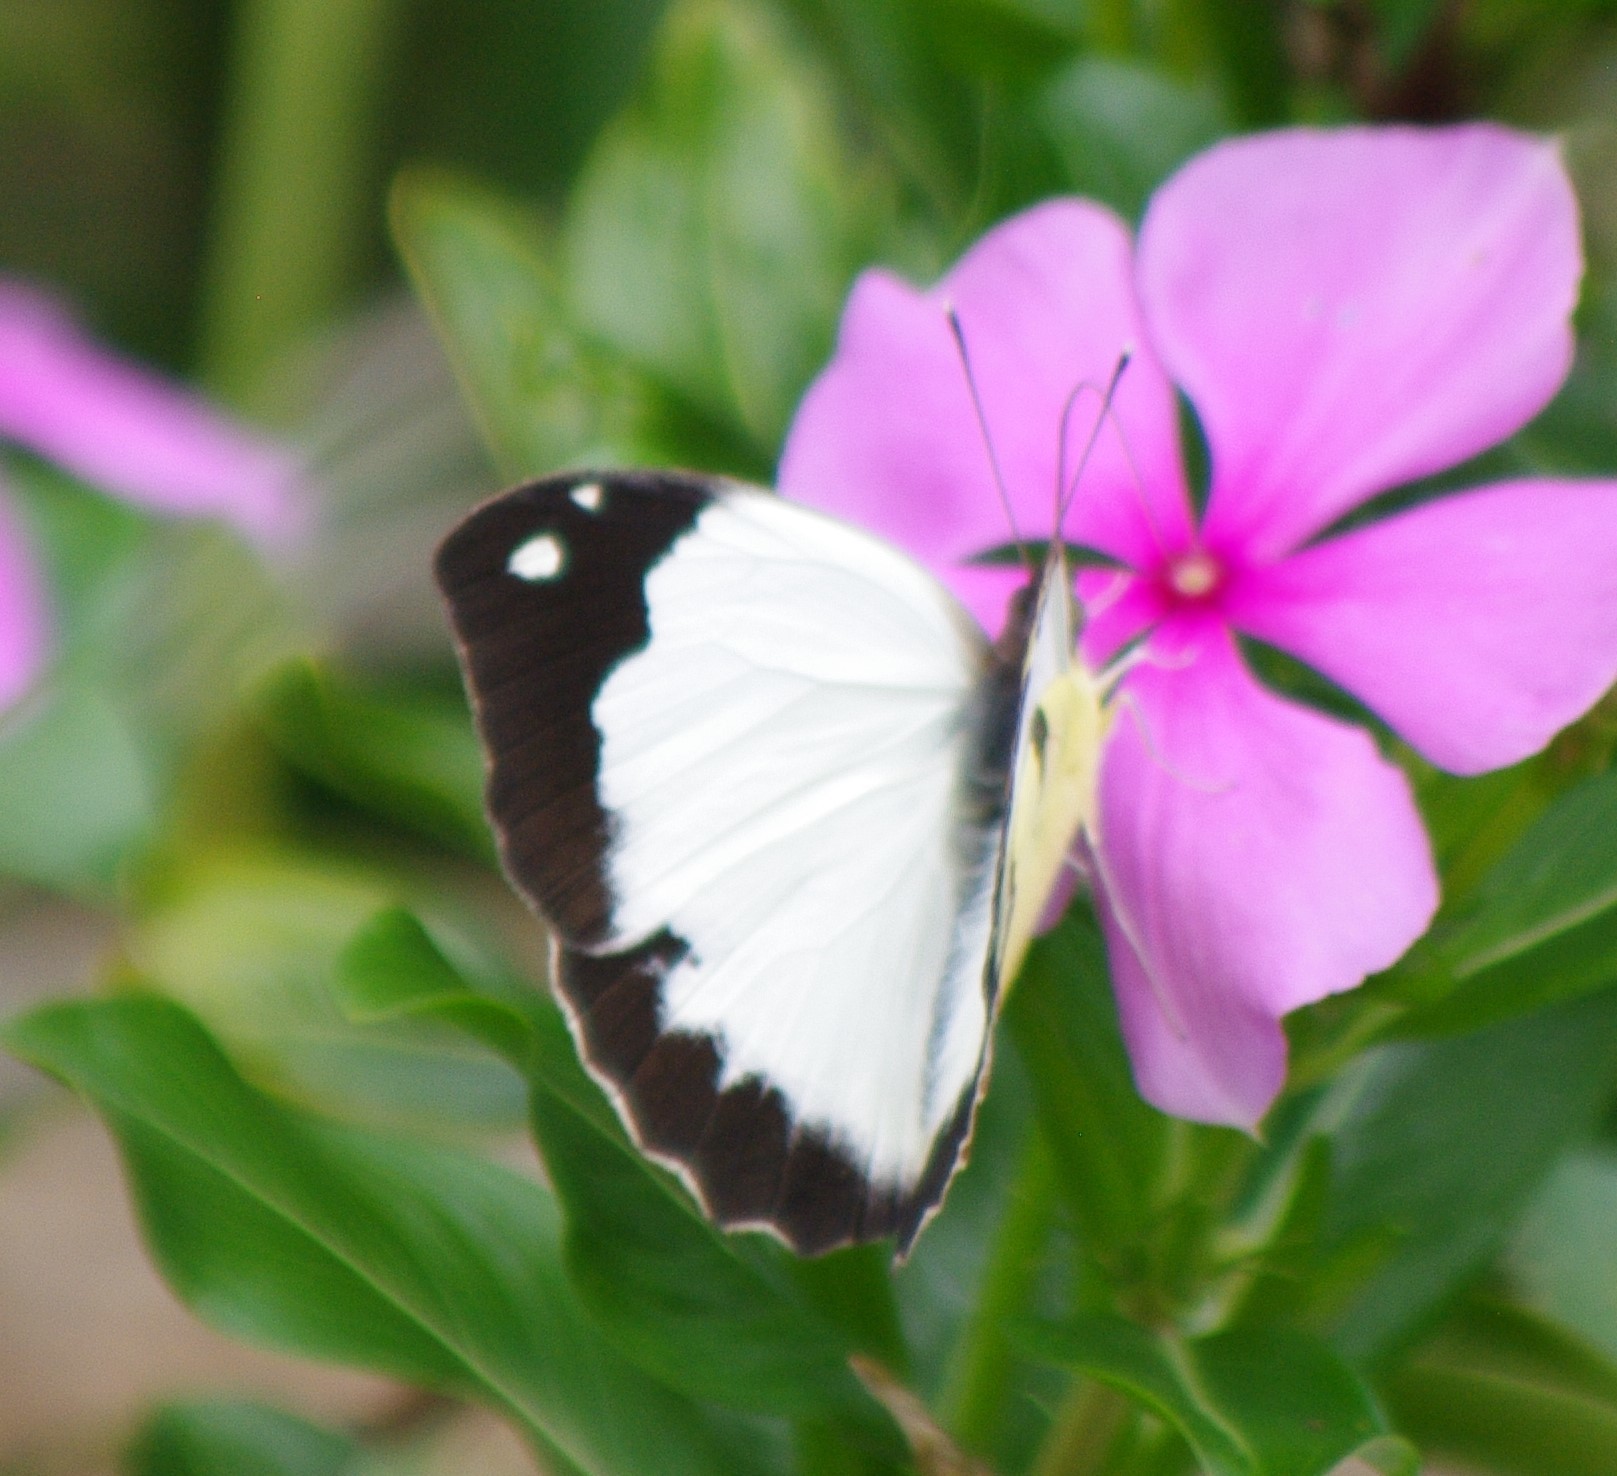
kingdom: Animalia
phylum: Arthropoda
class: Insecta
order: Lepidoptera
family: Pieridae
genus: Eronia
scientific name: Eronia cleodora
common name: Vine-leaf vagrant
